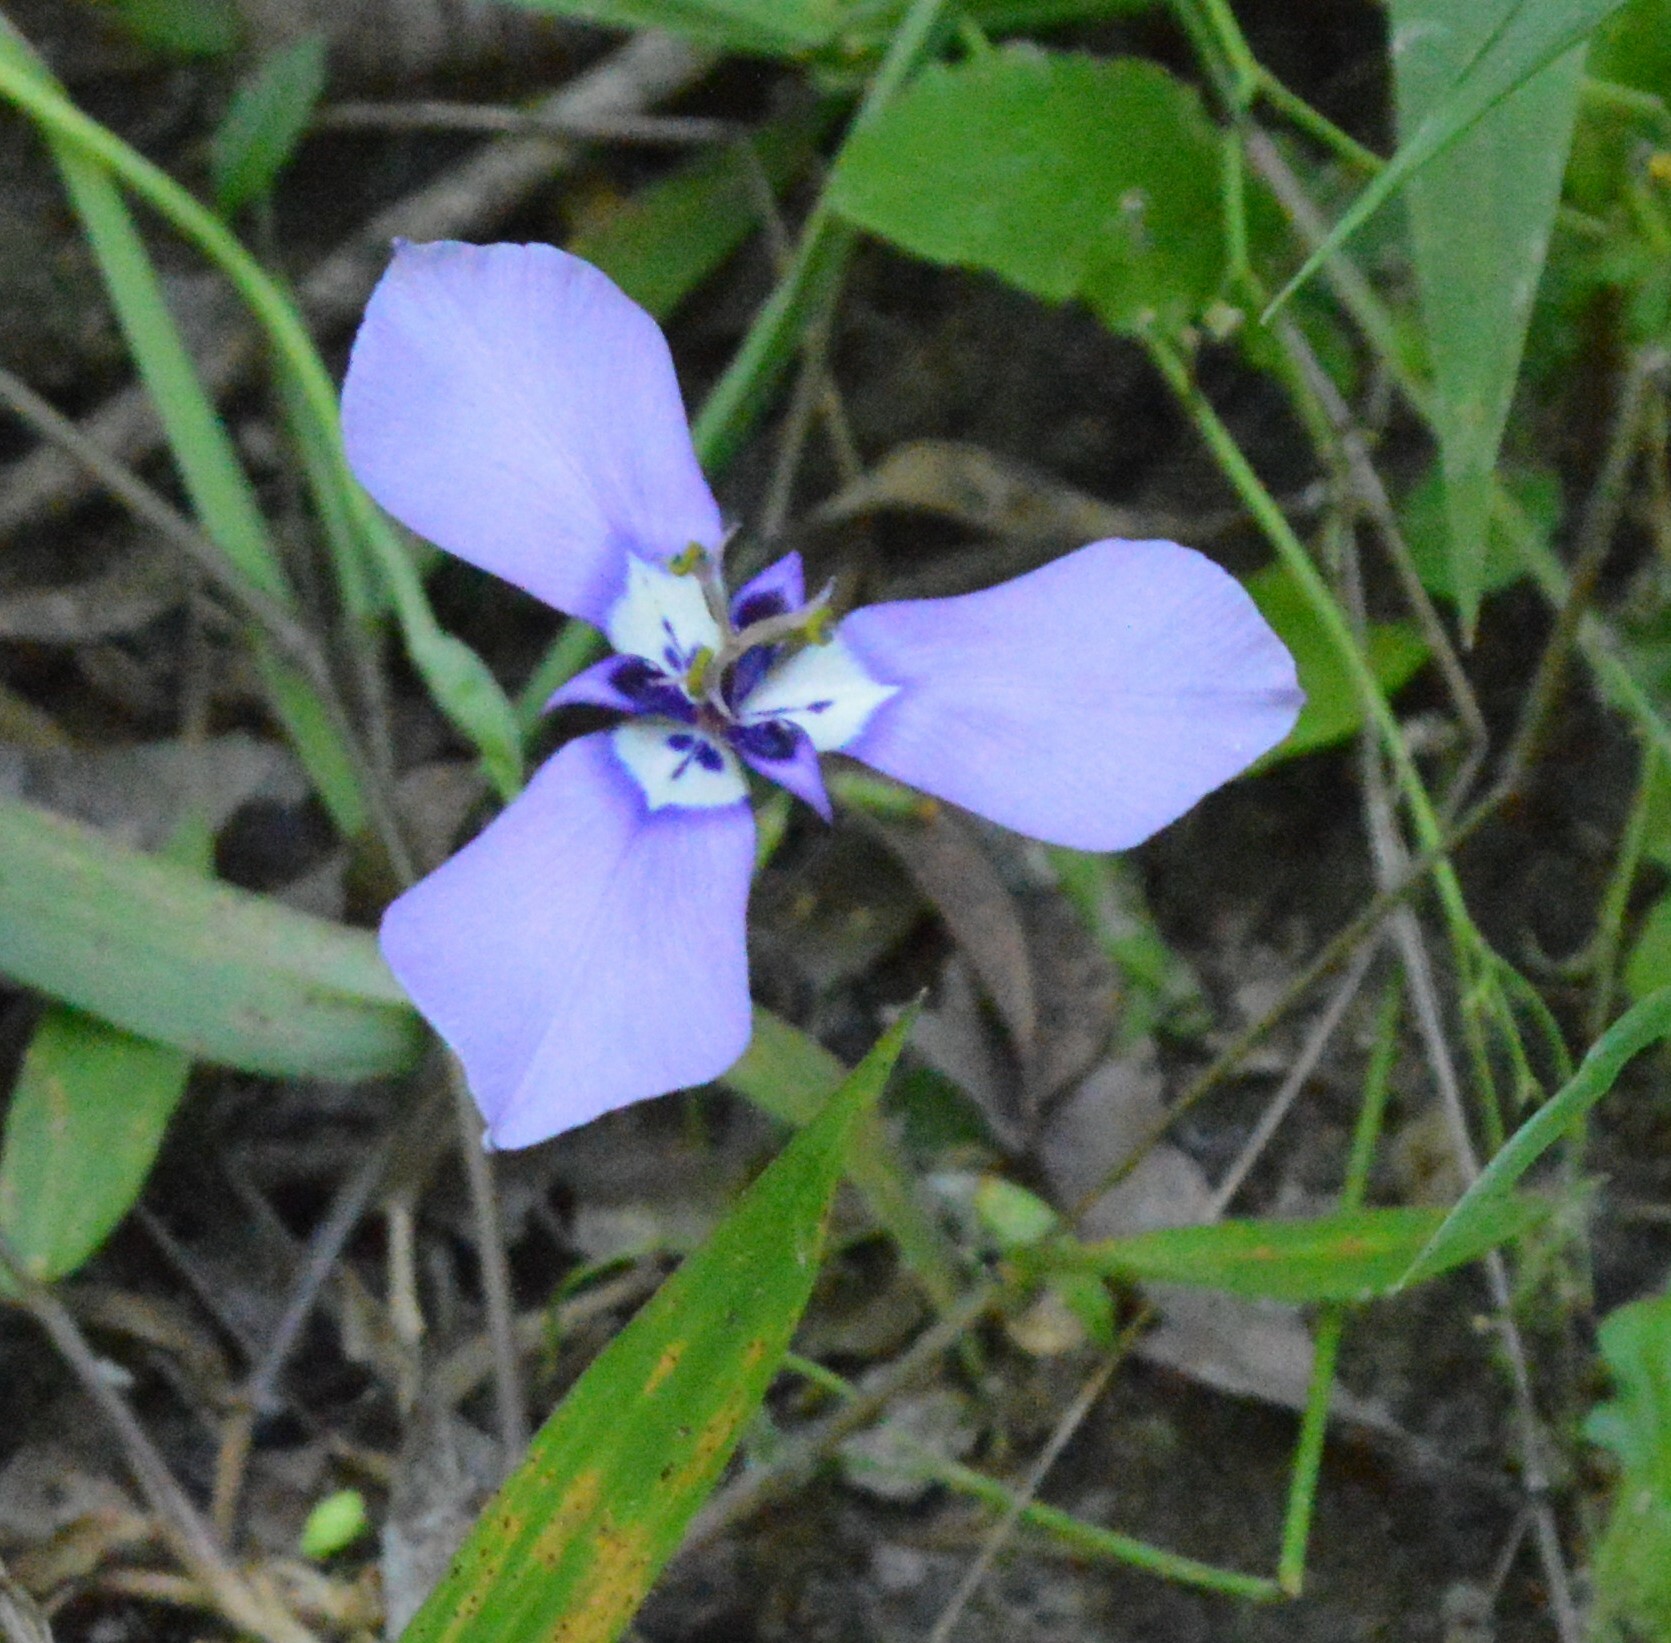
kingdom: Plantae
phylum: Tracheophyta
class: Liliopsida
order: Asparagales
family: Iridaceae
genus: Herbertia
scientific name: Herbertia lahue
